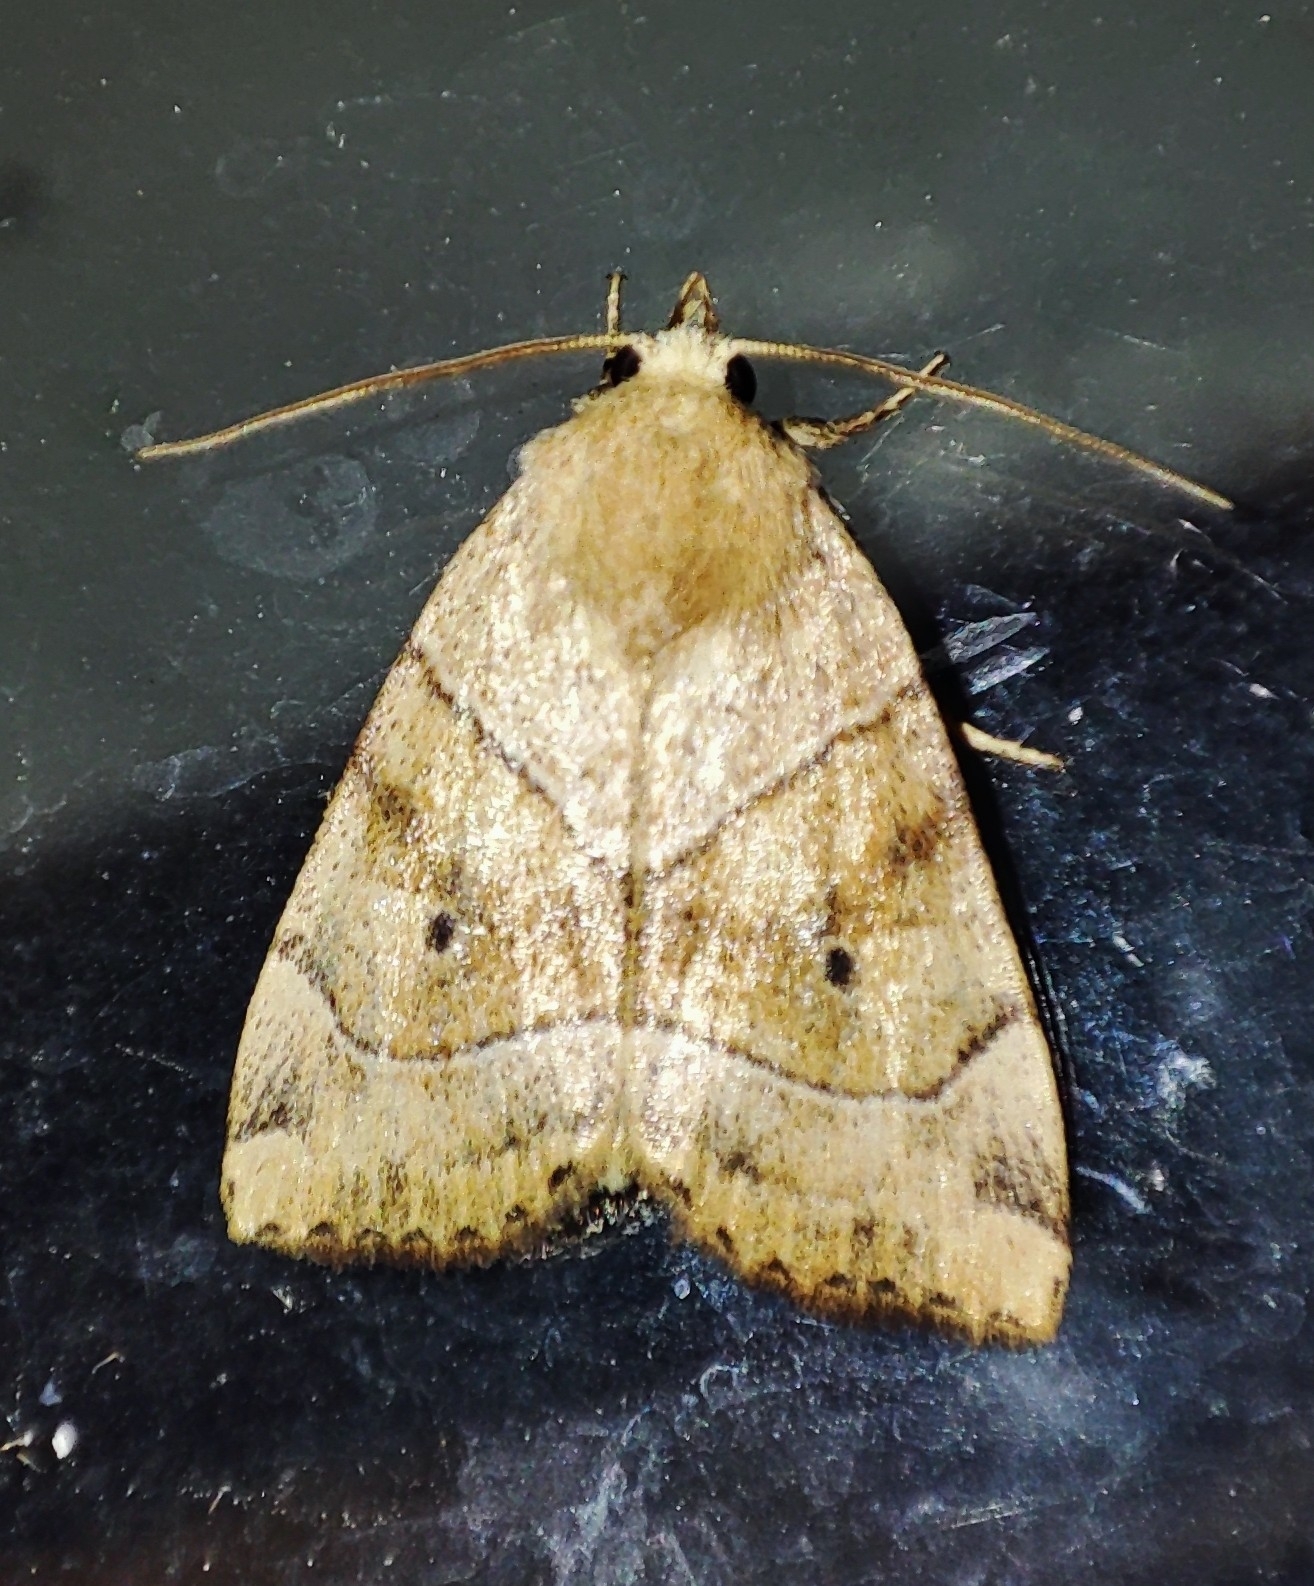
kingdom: Animalia
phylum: Arthropoda
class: Insecta
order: Lepidoptera
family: Noctuidae
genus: Cosmia
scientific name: Cosmia trapezina
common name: Dun-bar
